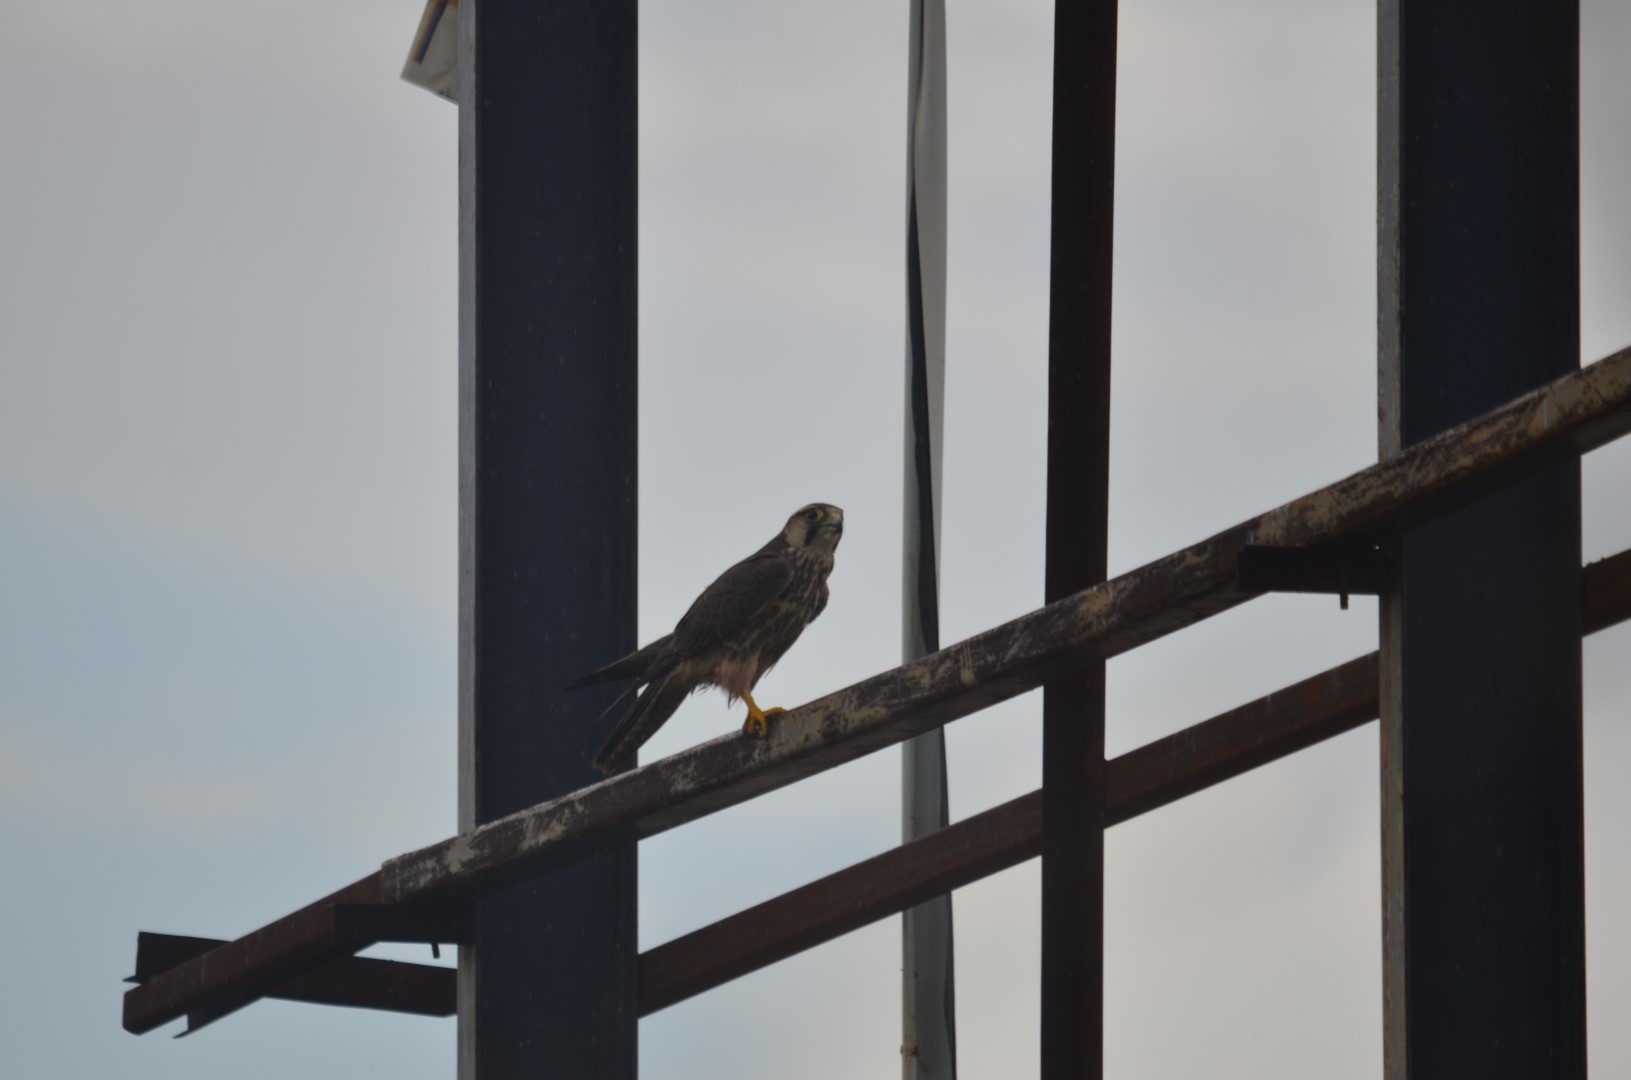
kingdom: Animalia
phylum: Chordata
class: Aves
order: Falconiformes
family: Falconidae
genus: Falco
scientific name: Falco biarmicus
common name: Lanner falcon
